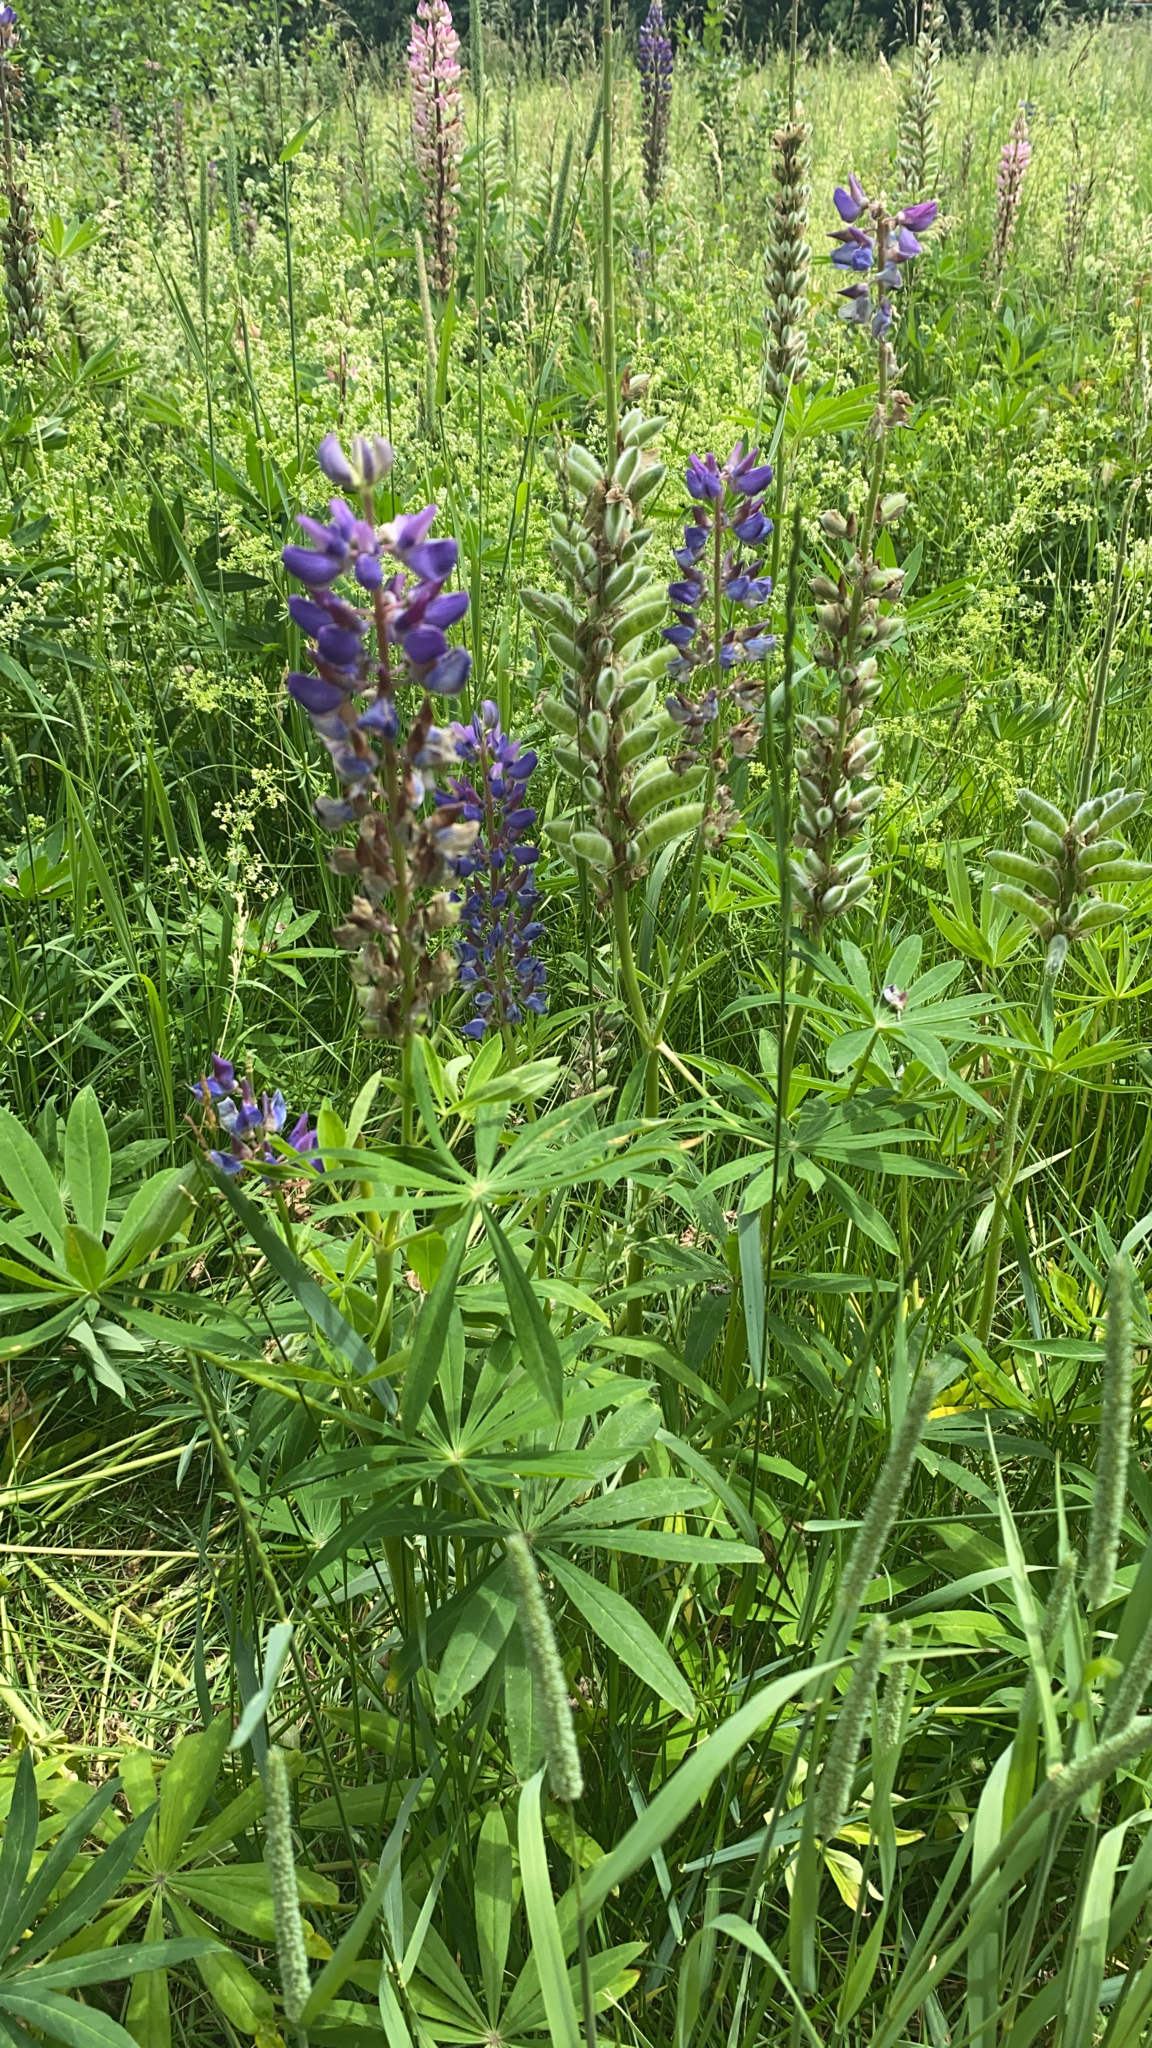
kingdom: Plantae
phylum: Tracheophyta
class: Magnoliopsida
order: Fabales
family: Fabaceae
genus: Lupinus
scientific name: Lupinus polyphyllus
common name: Garden lupin
